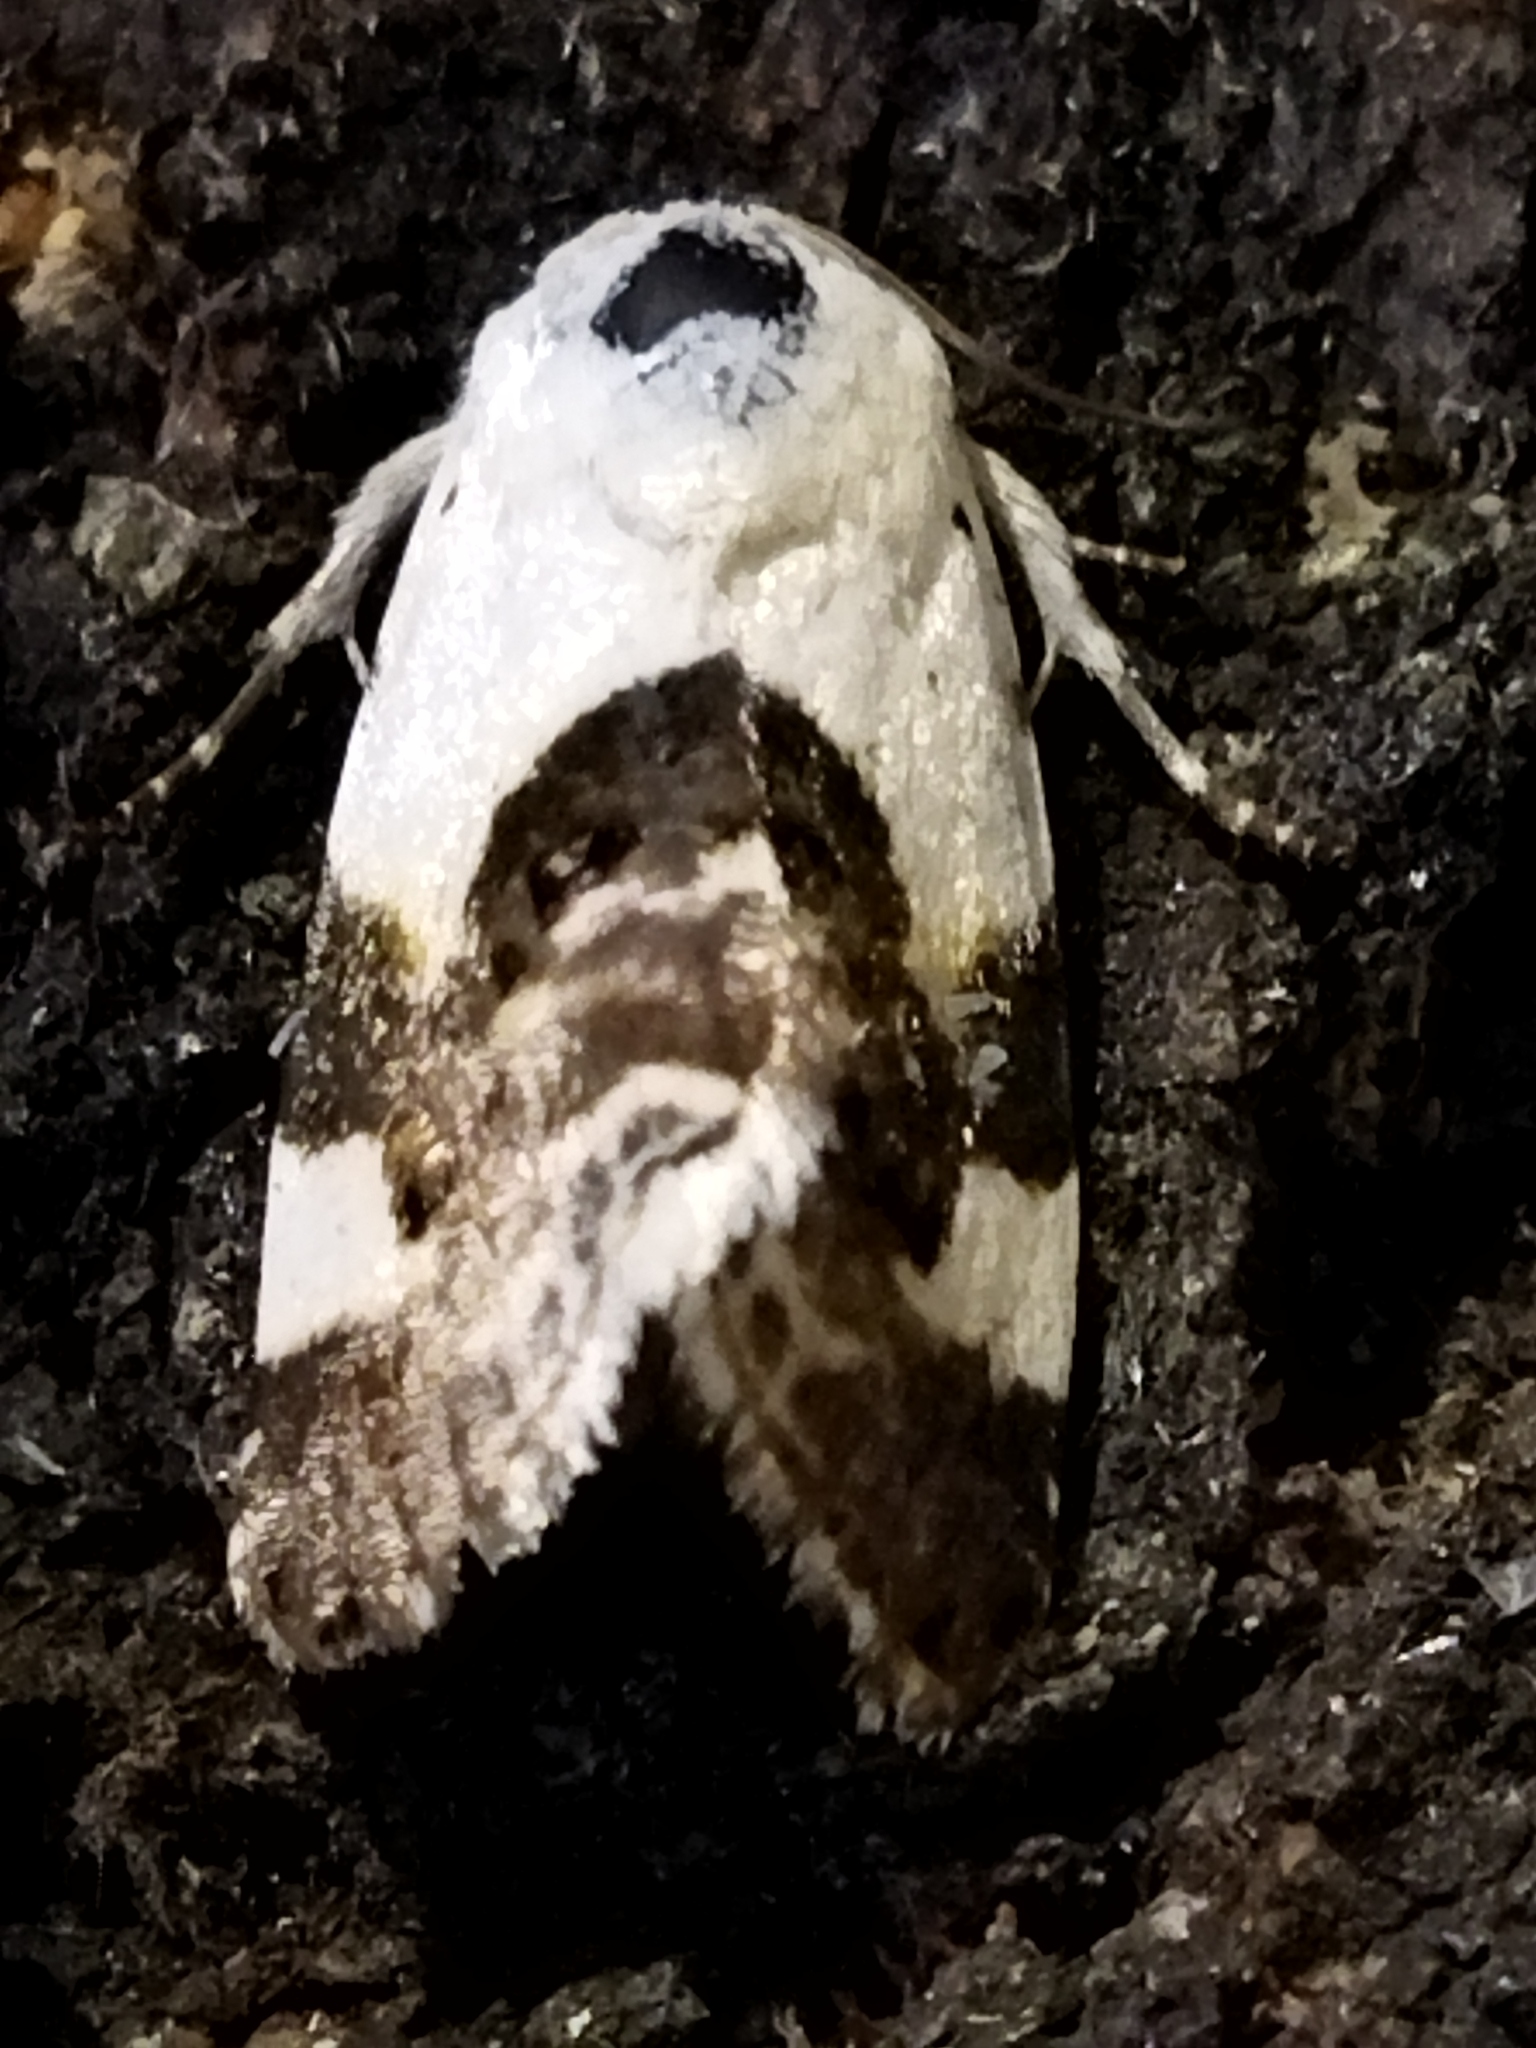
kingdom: Animalia
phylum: Arthropoda
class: Insecta
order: Lepidoptera
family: Noctuidae
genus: Acontia
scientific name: Acontia lucida
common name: Pale shoulder
